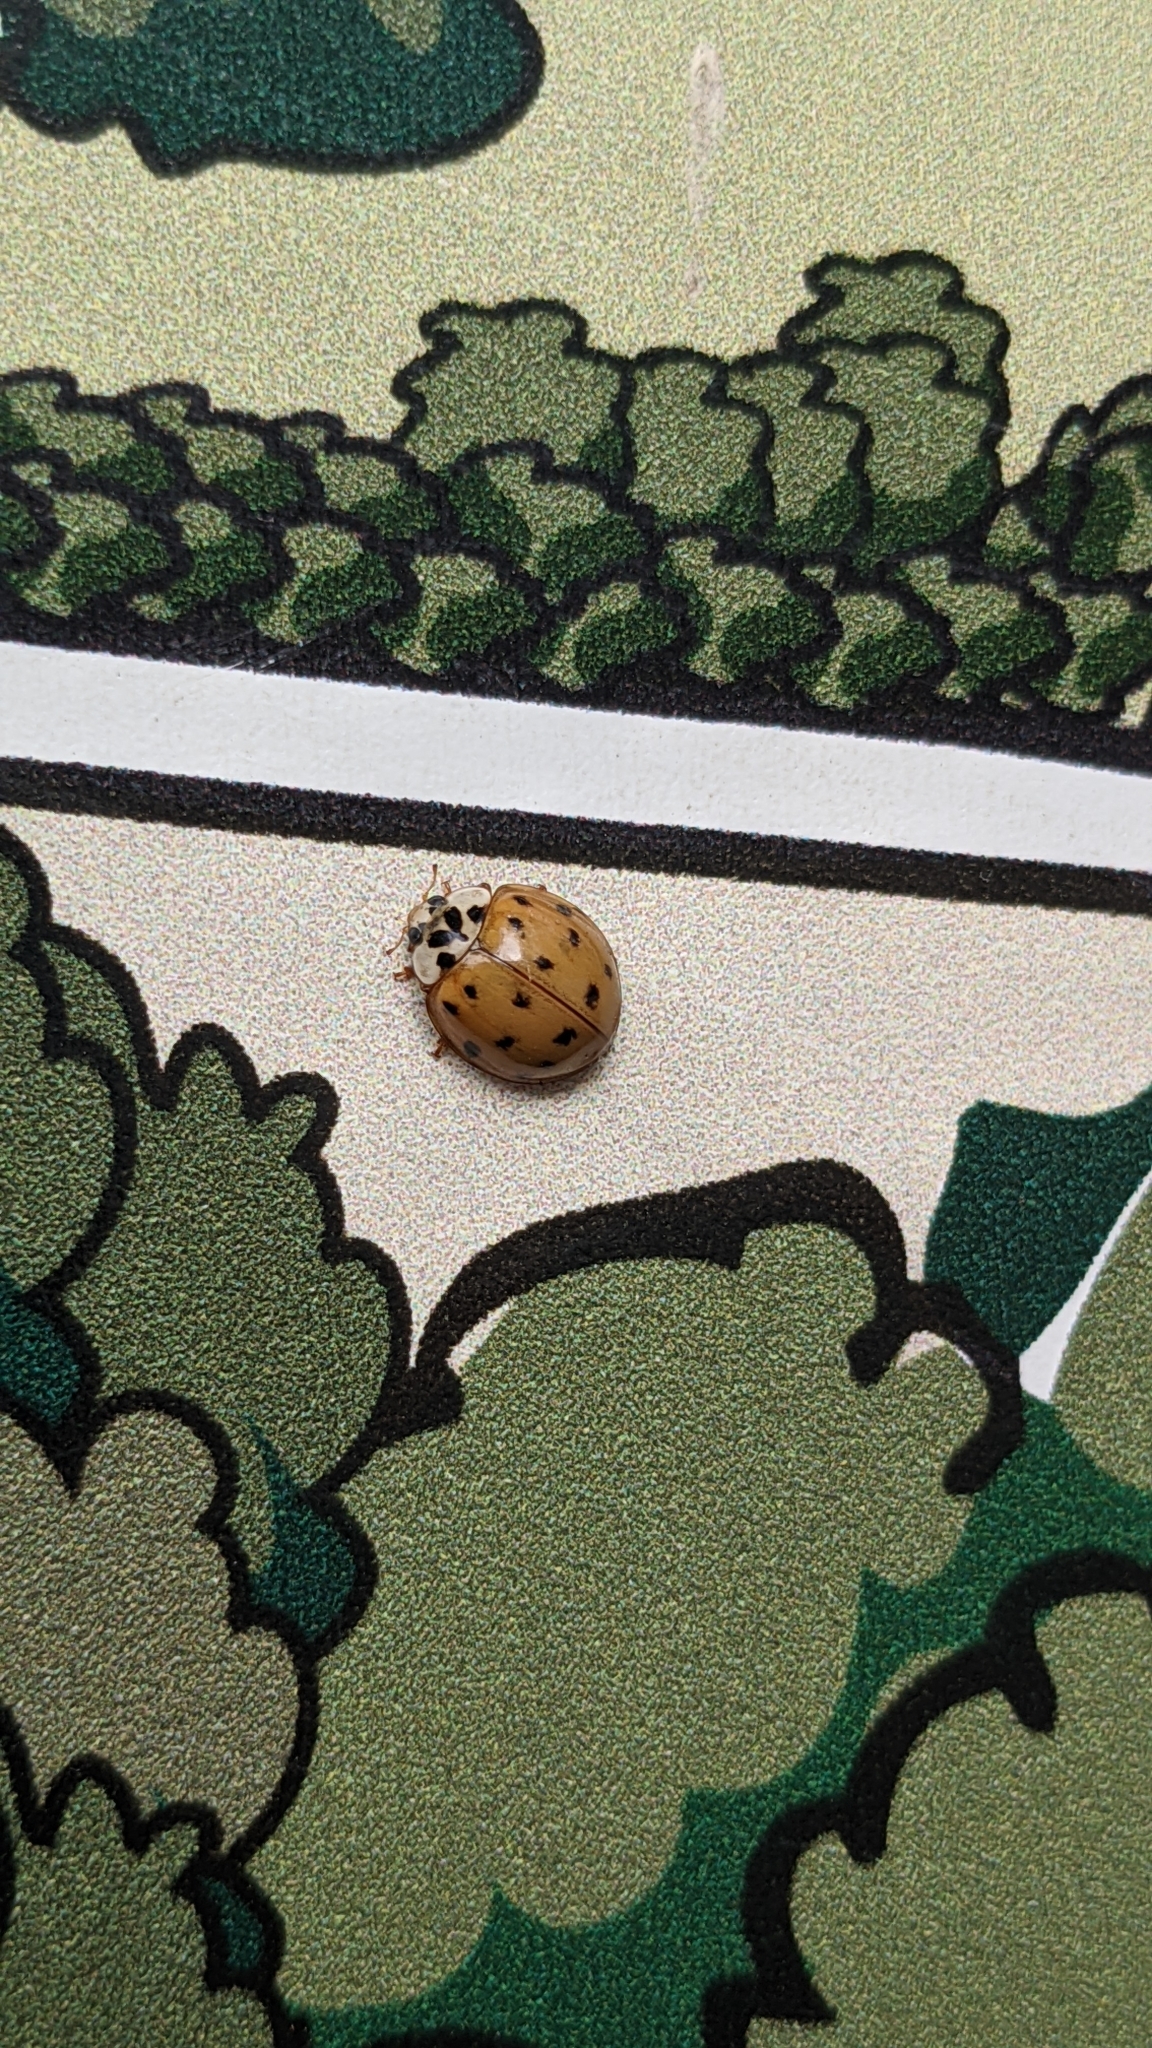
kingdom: Animalia
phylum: Arthropoda
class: Insecta
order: Coleoptera
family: Coccinellidae
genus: Harmonia
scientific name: Harmonia axyridis
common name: Harlequin ladybird
